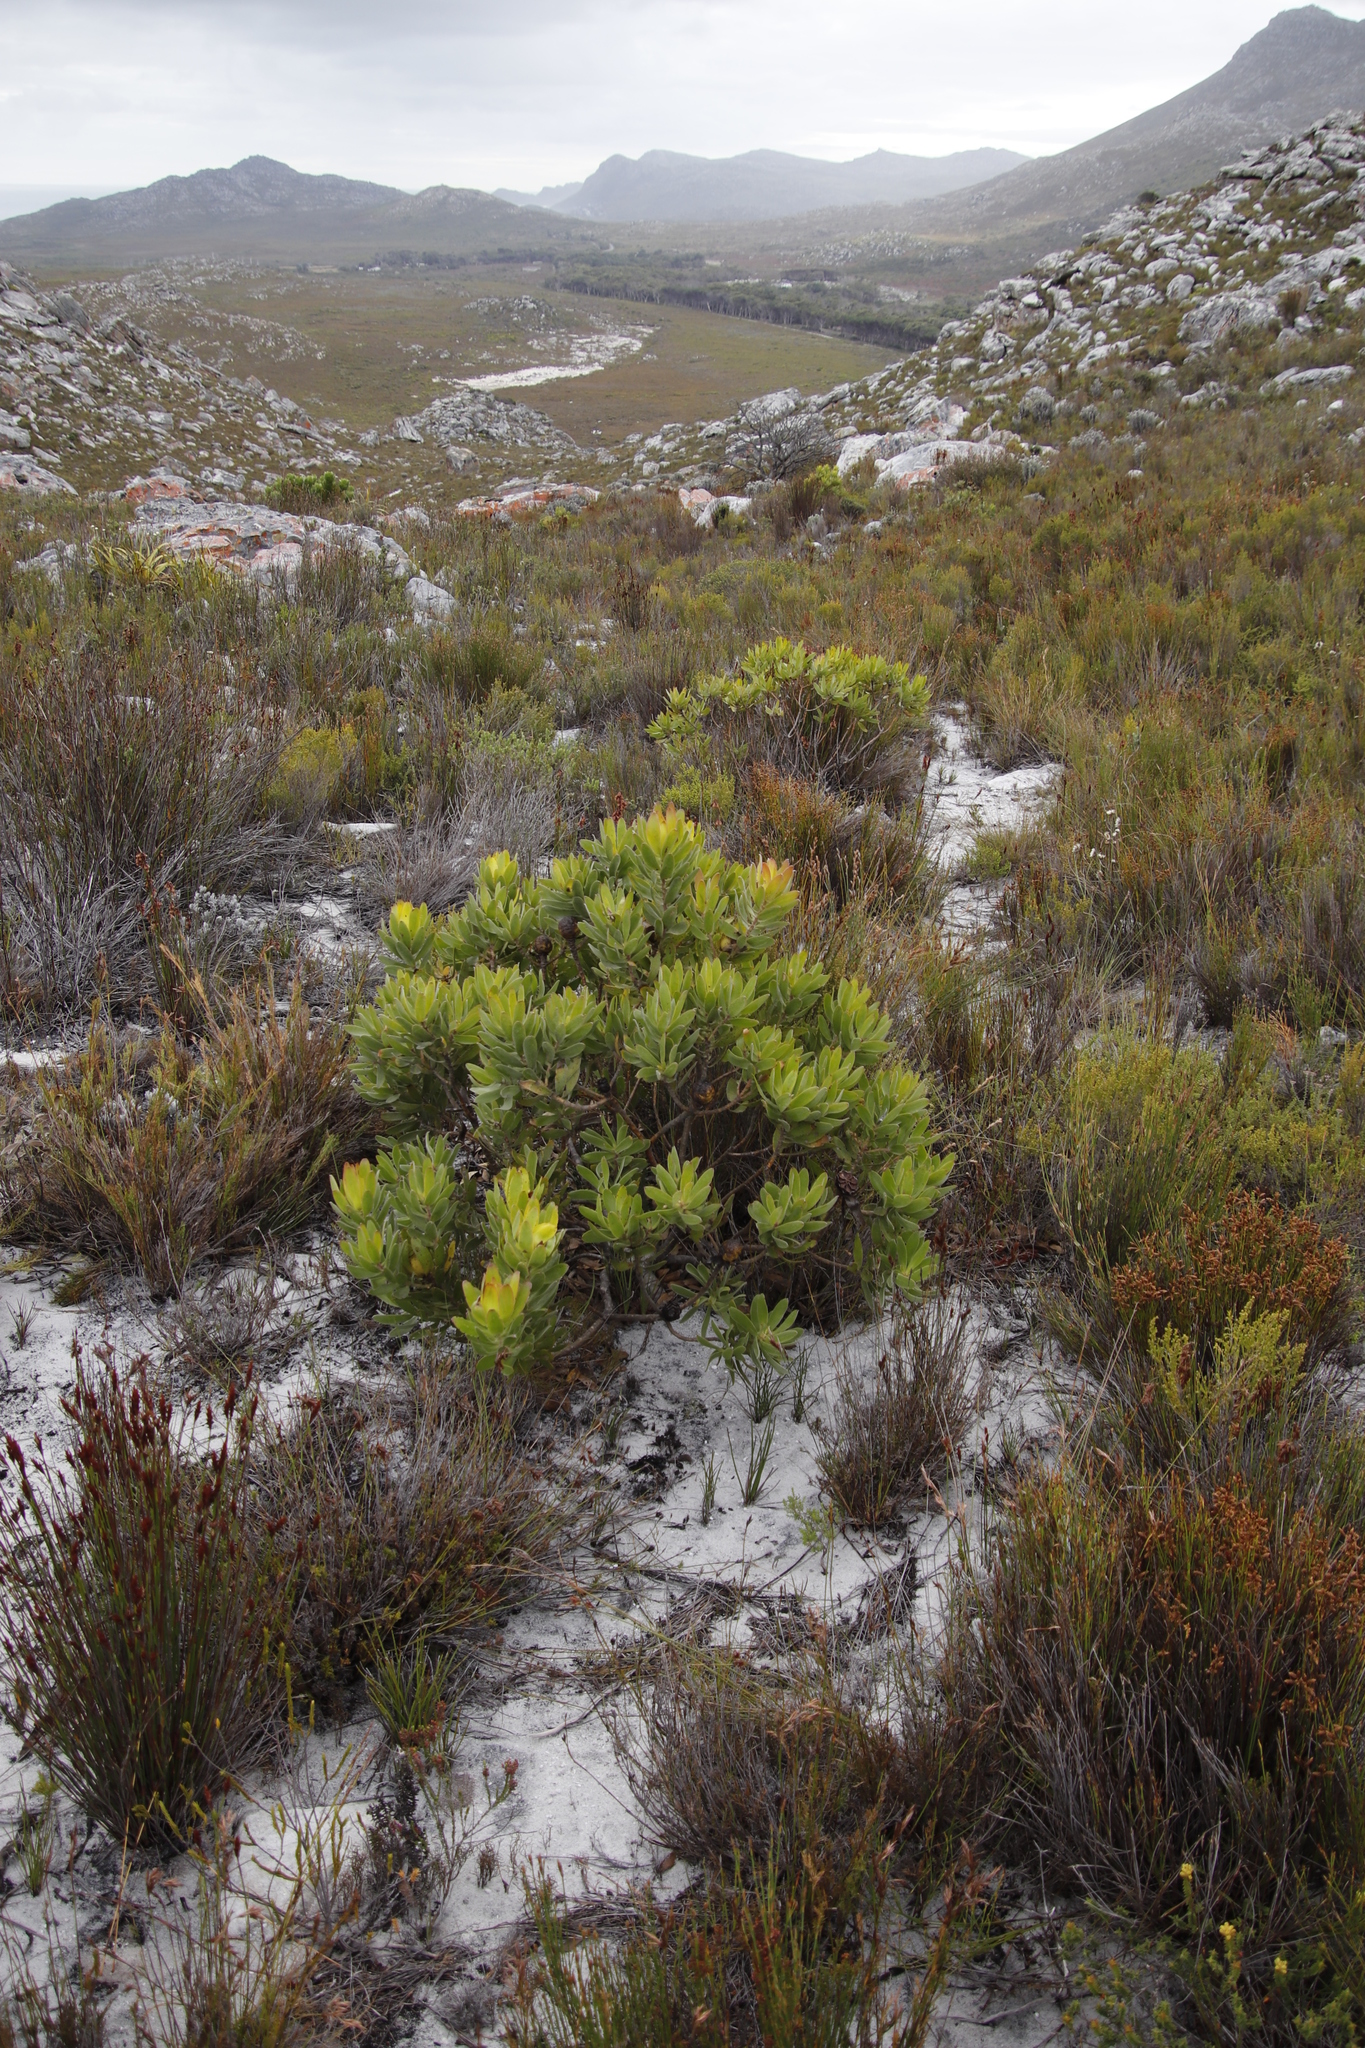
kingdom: Plantae
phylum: Tracheophyta
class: Magnoliopsida
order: Proteales
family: Proteaceae
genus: Leucadendron
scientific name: Leucadendron laureolum
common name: Golden sunshinebush
